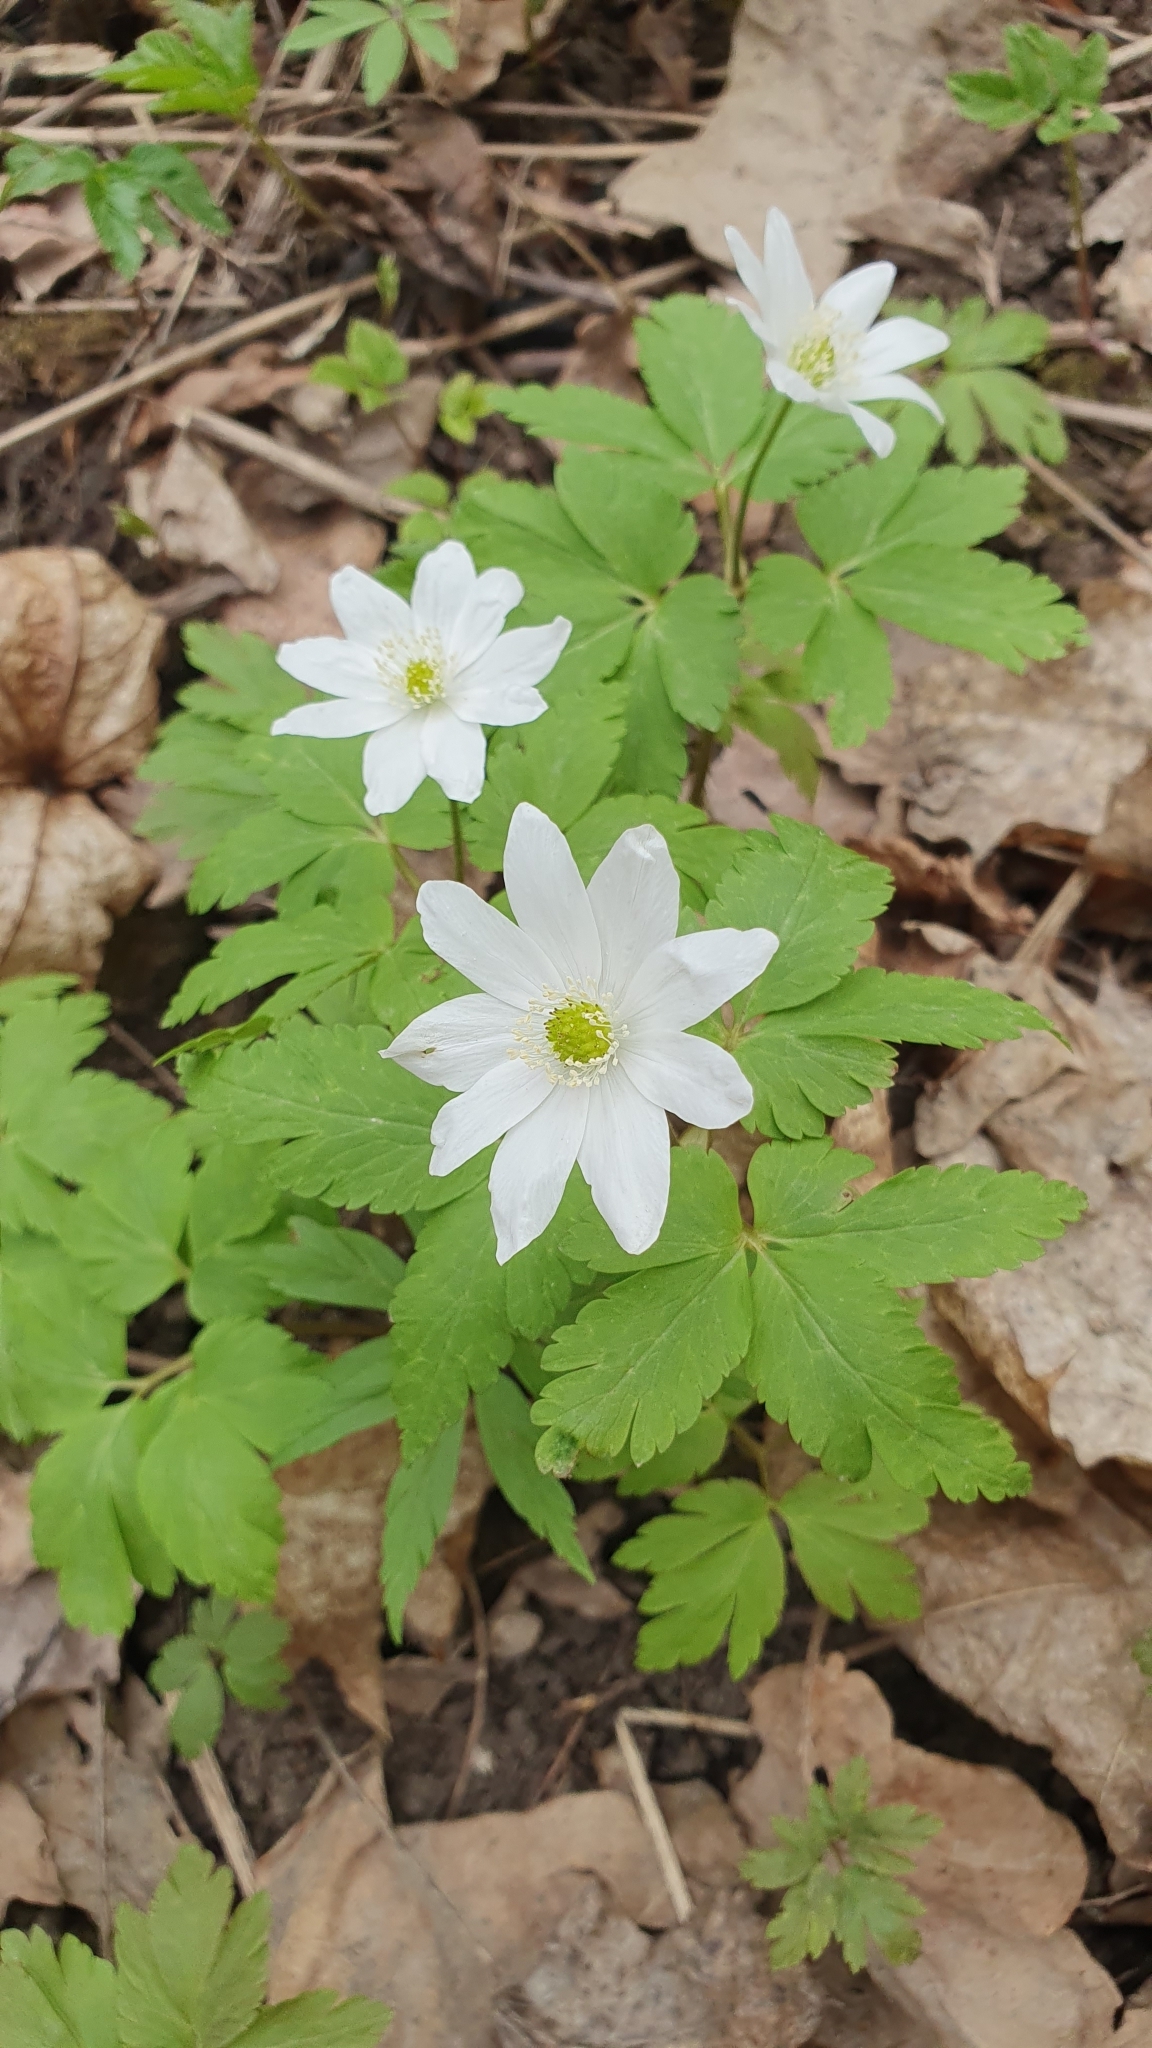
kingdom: Plantae
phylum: Tracheophyta
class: Magnoliopsida
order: Ranunculales
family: Ranunculaceae
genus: Anemone
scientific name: Anemone altaica
